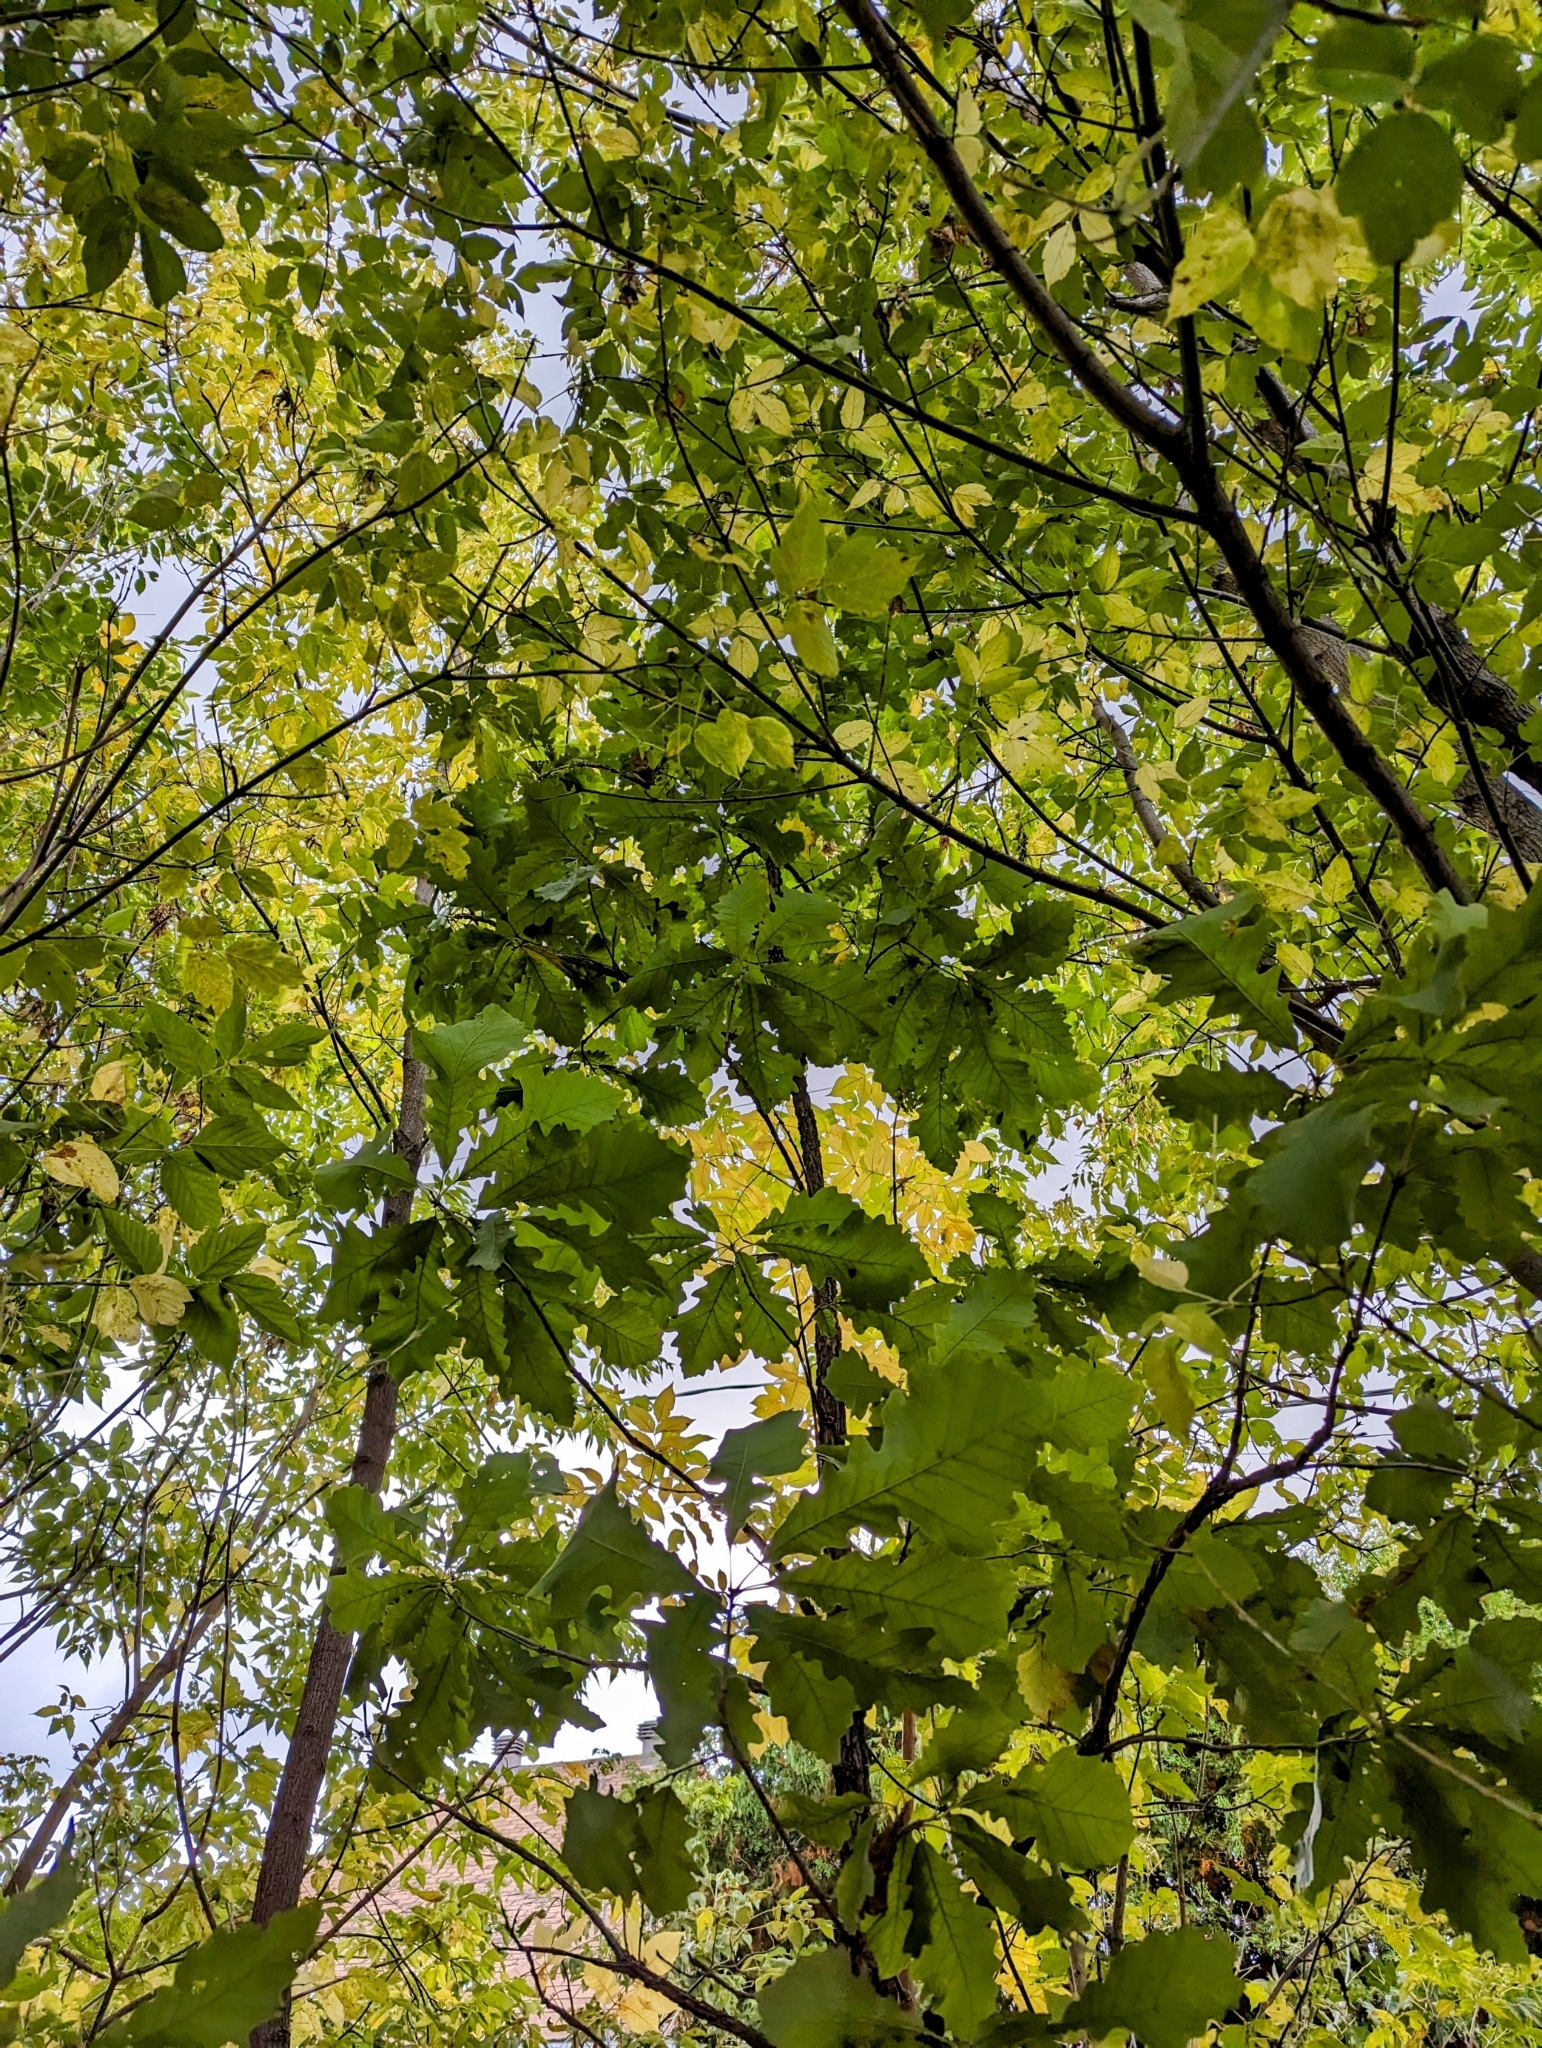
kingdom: Plantae
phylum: Tracheophyta
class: Magnoliopsida
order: Fagales
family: Fagaceae
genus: Quercus
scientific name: Quercus macrocarpa
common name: Bur oak
